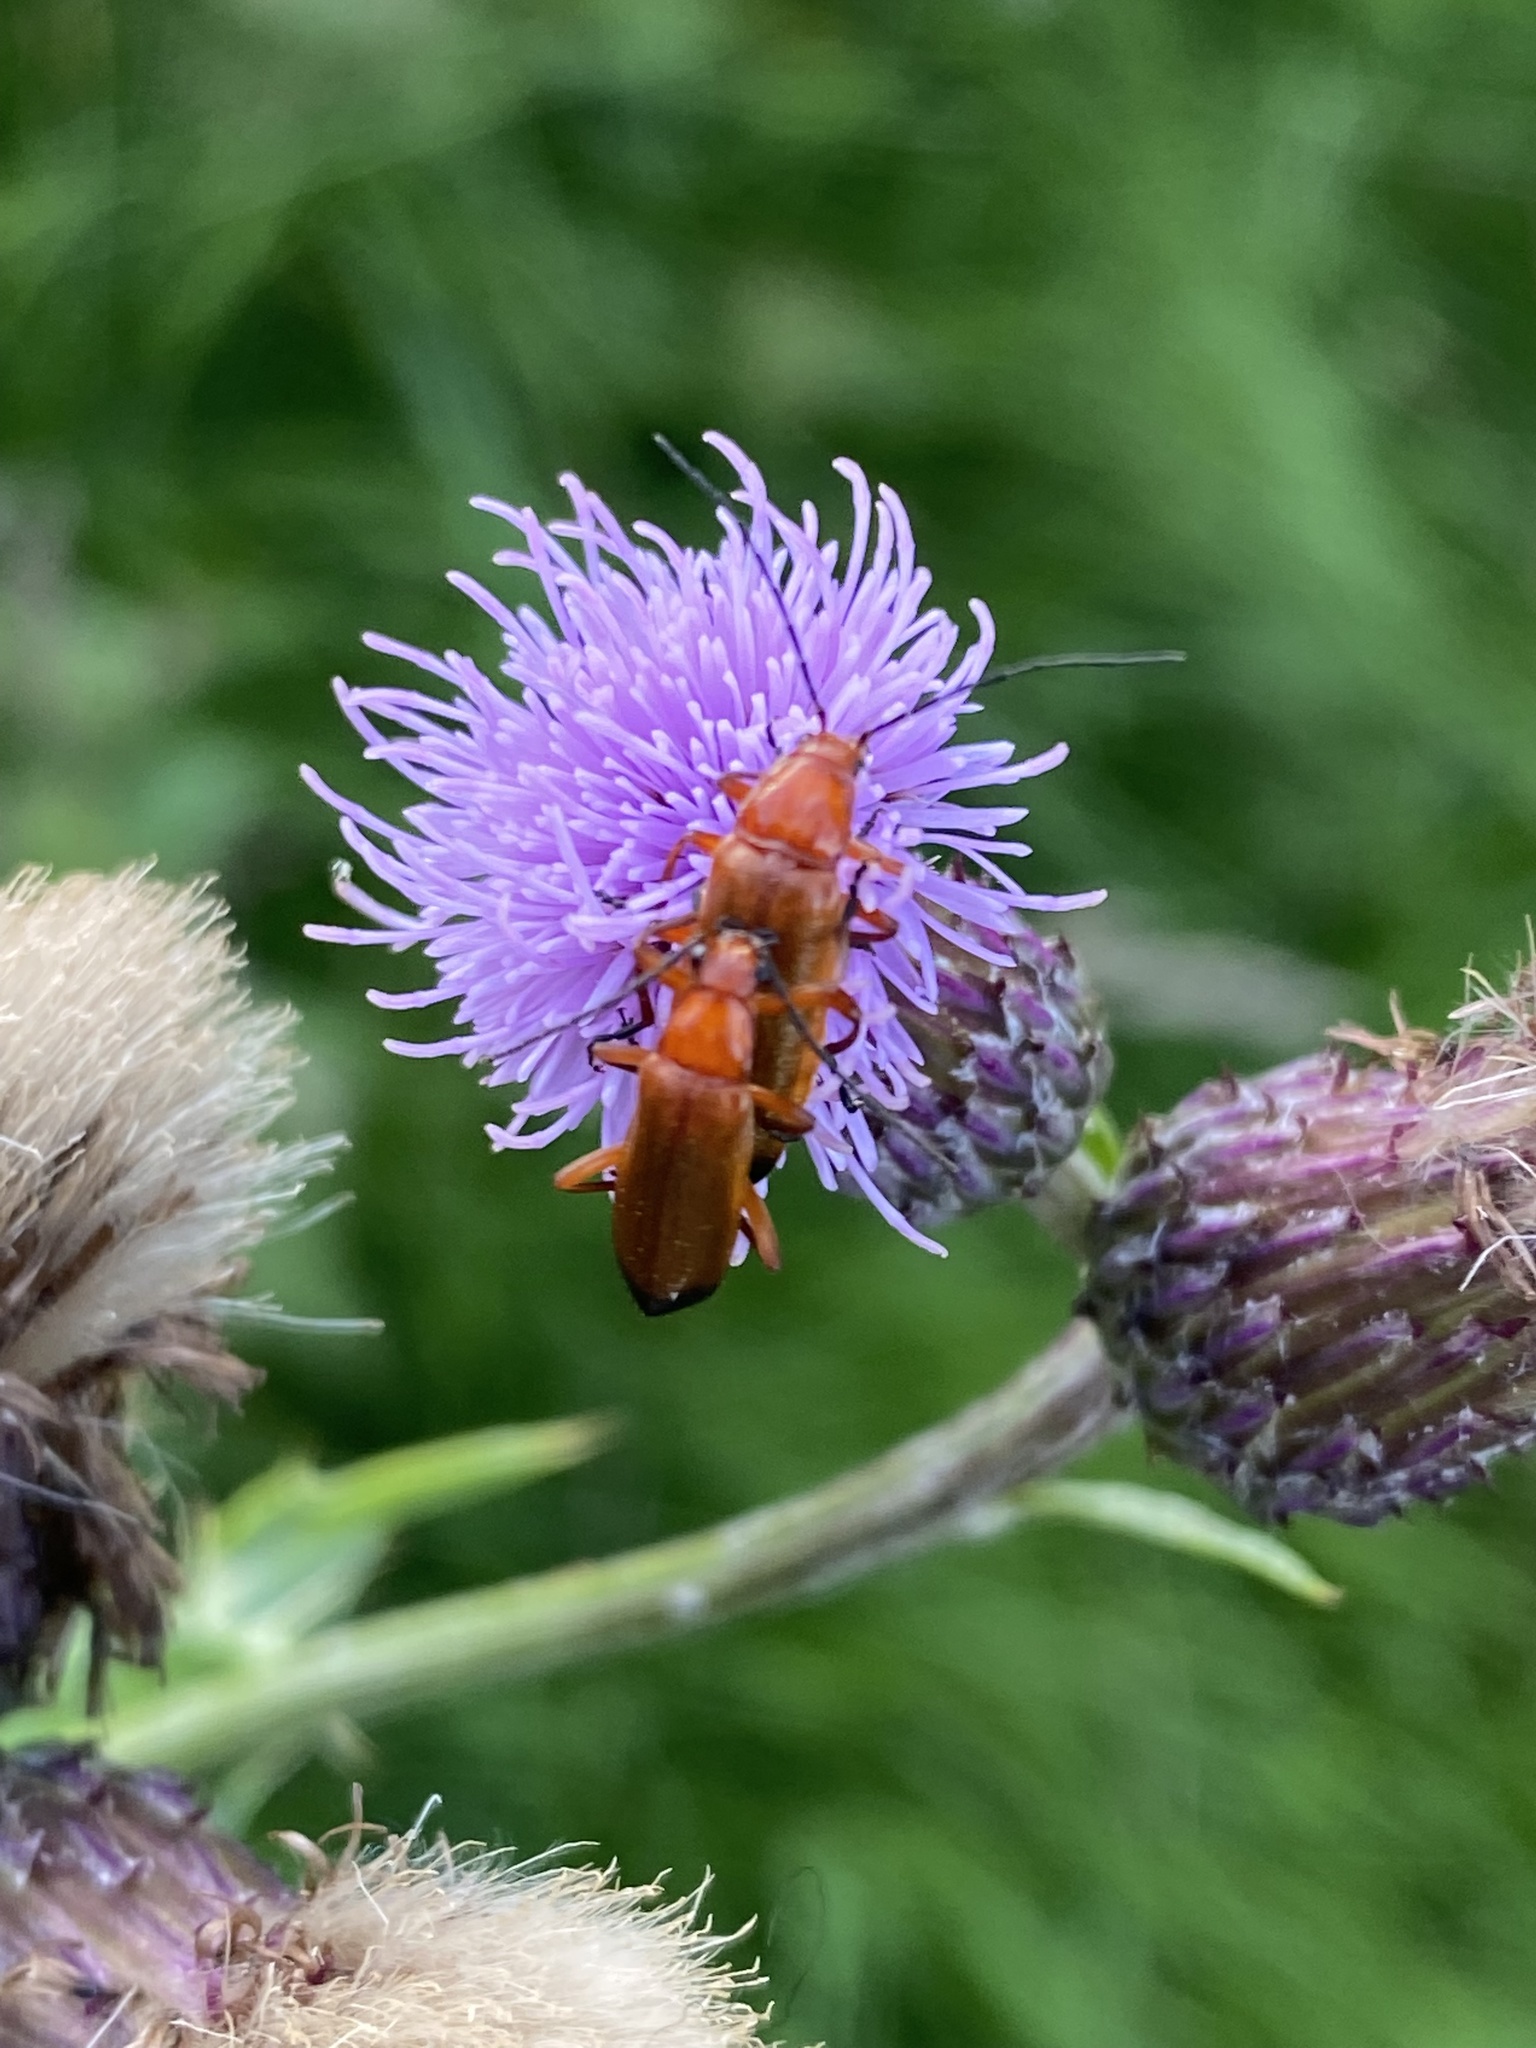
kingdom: Animalia
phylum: Arthropoda
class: Insecta
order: Coleoptera
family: Cantharidae
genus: Rhagonycha
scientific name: Rhagonycha fulva
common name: Common red soldier beetle
